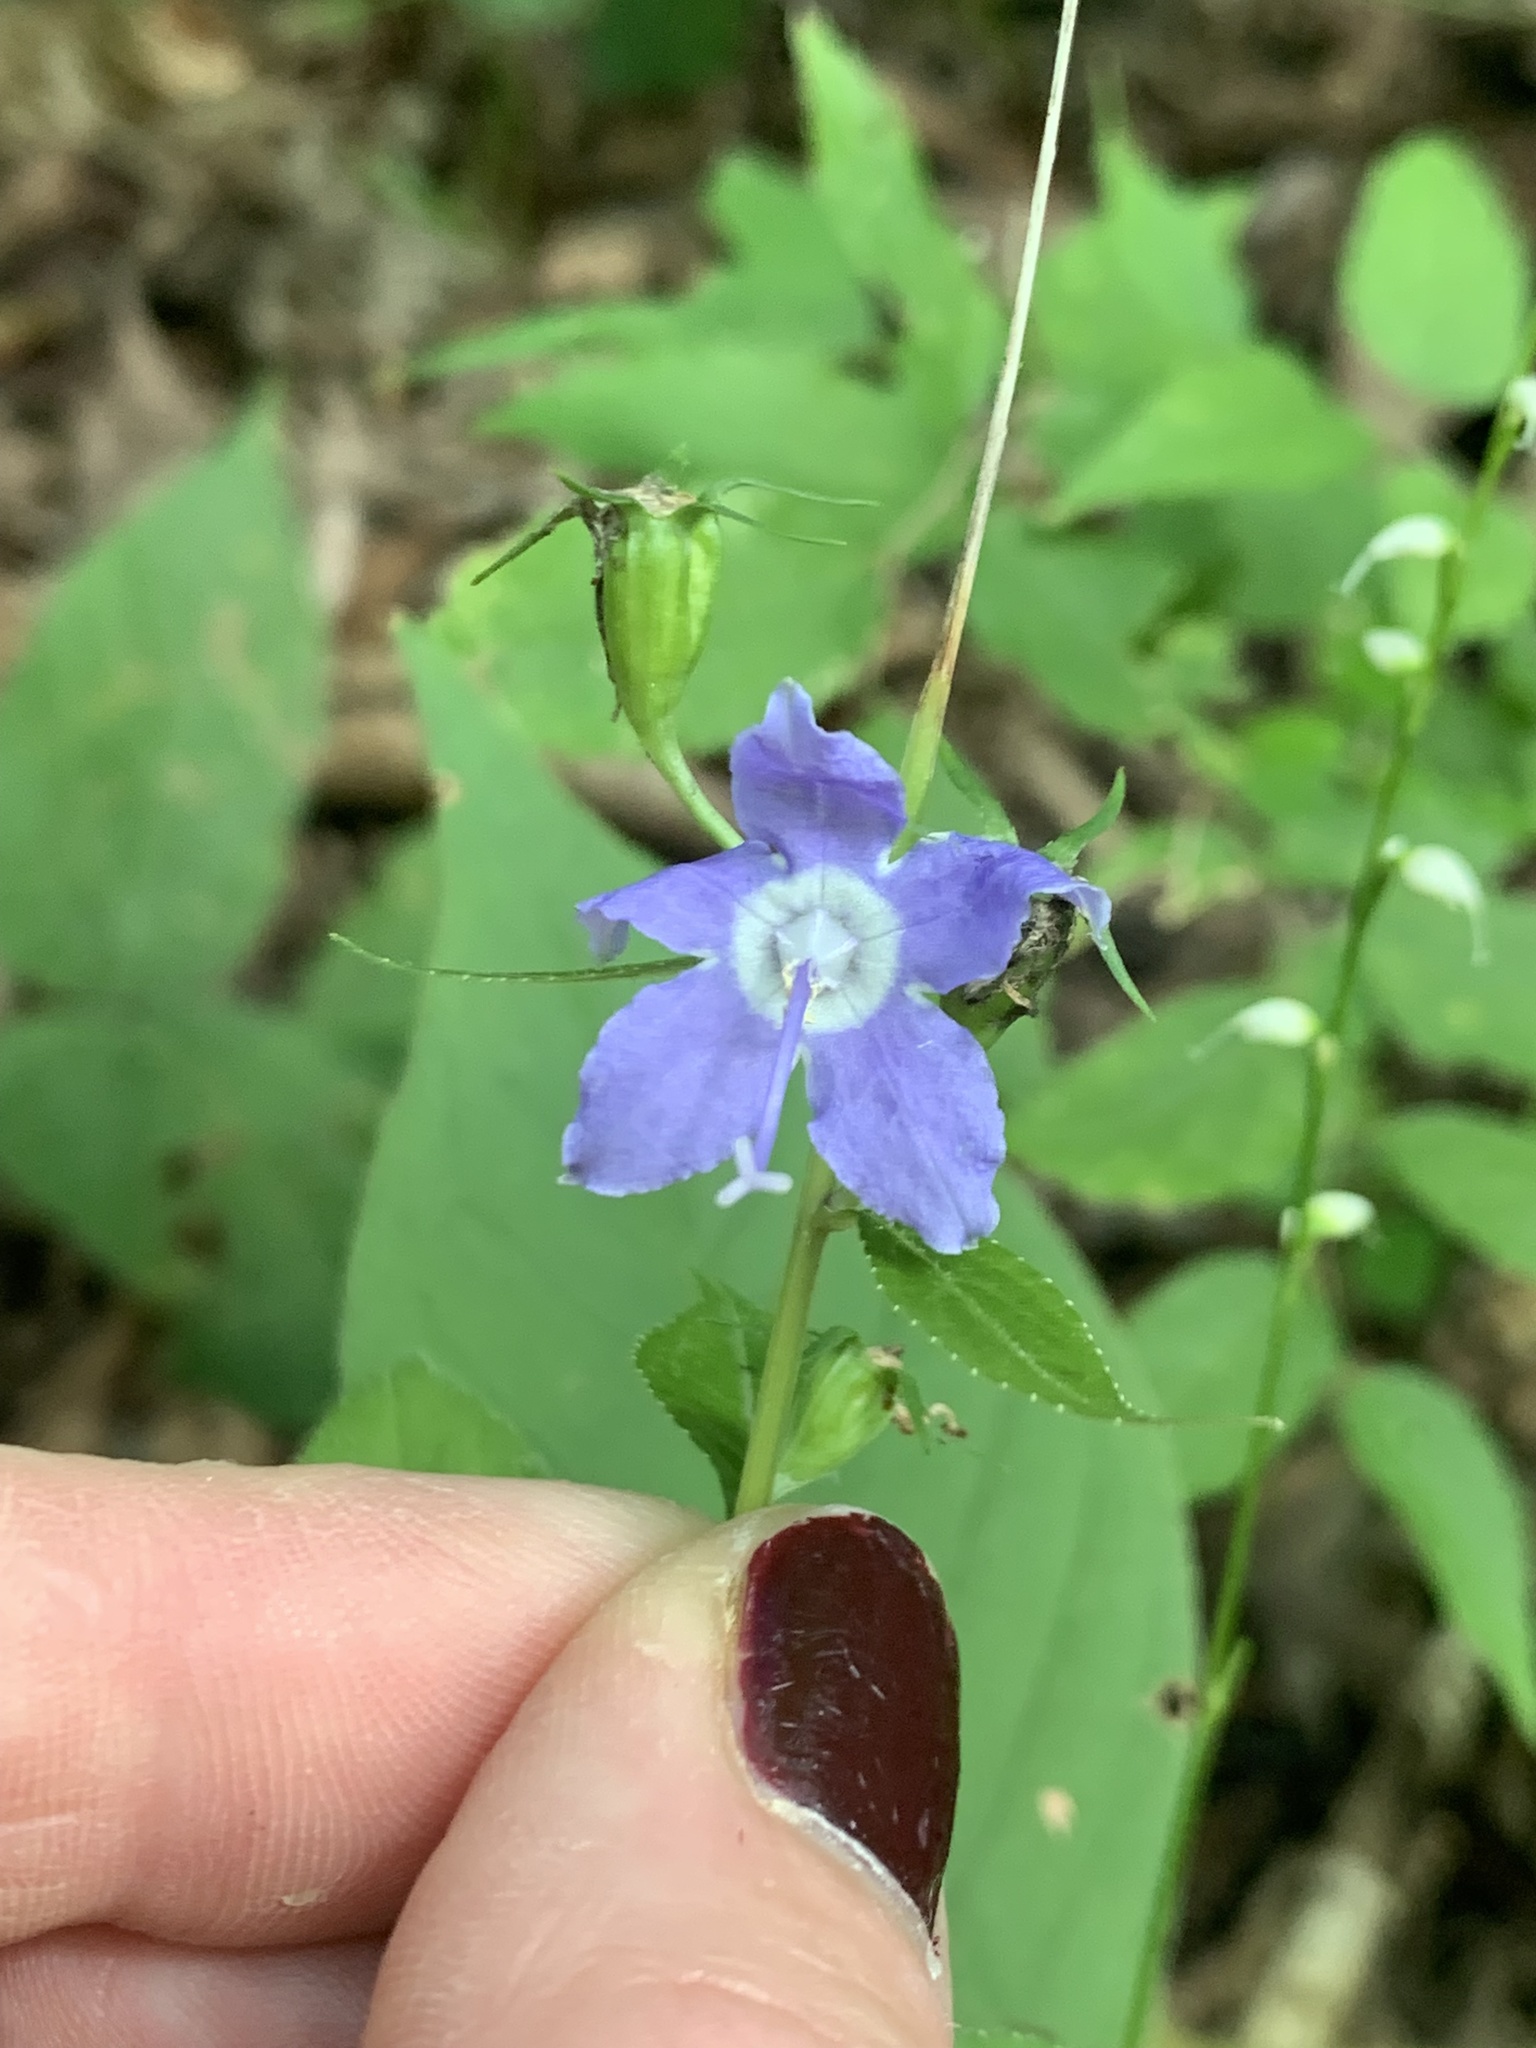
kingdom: Plantae
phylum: Tracheophyta
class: Magnoliopsida
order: Asterales
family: Campanulaceae
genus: Campanulastrum
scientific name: Campanulastrum americanum
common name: American bellflower
